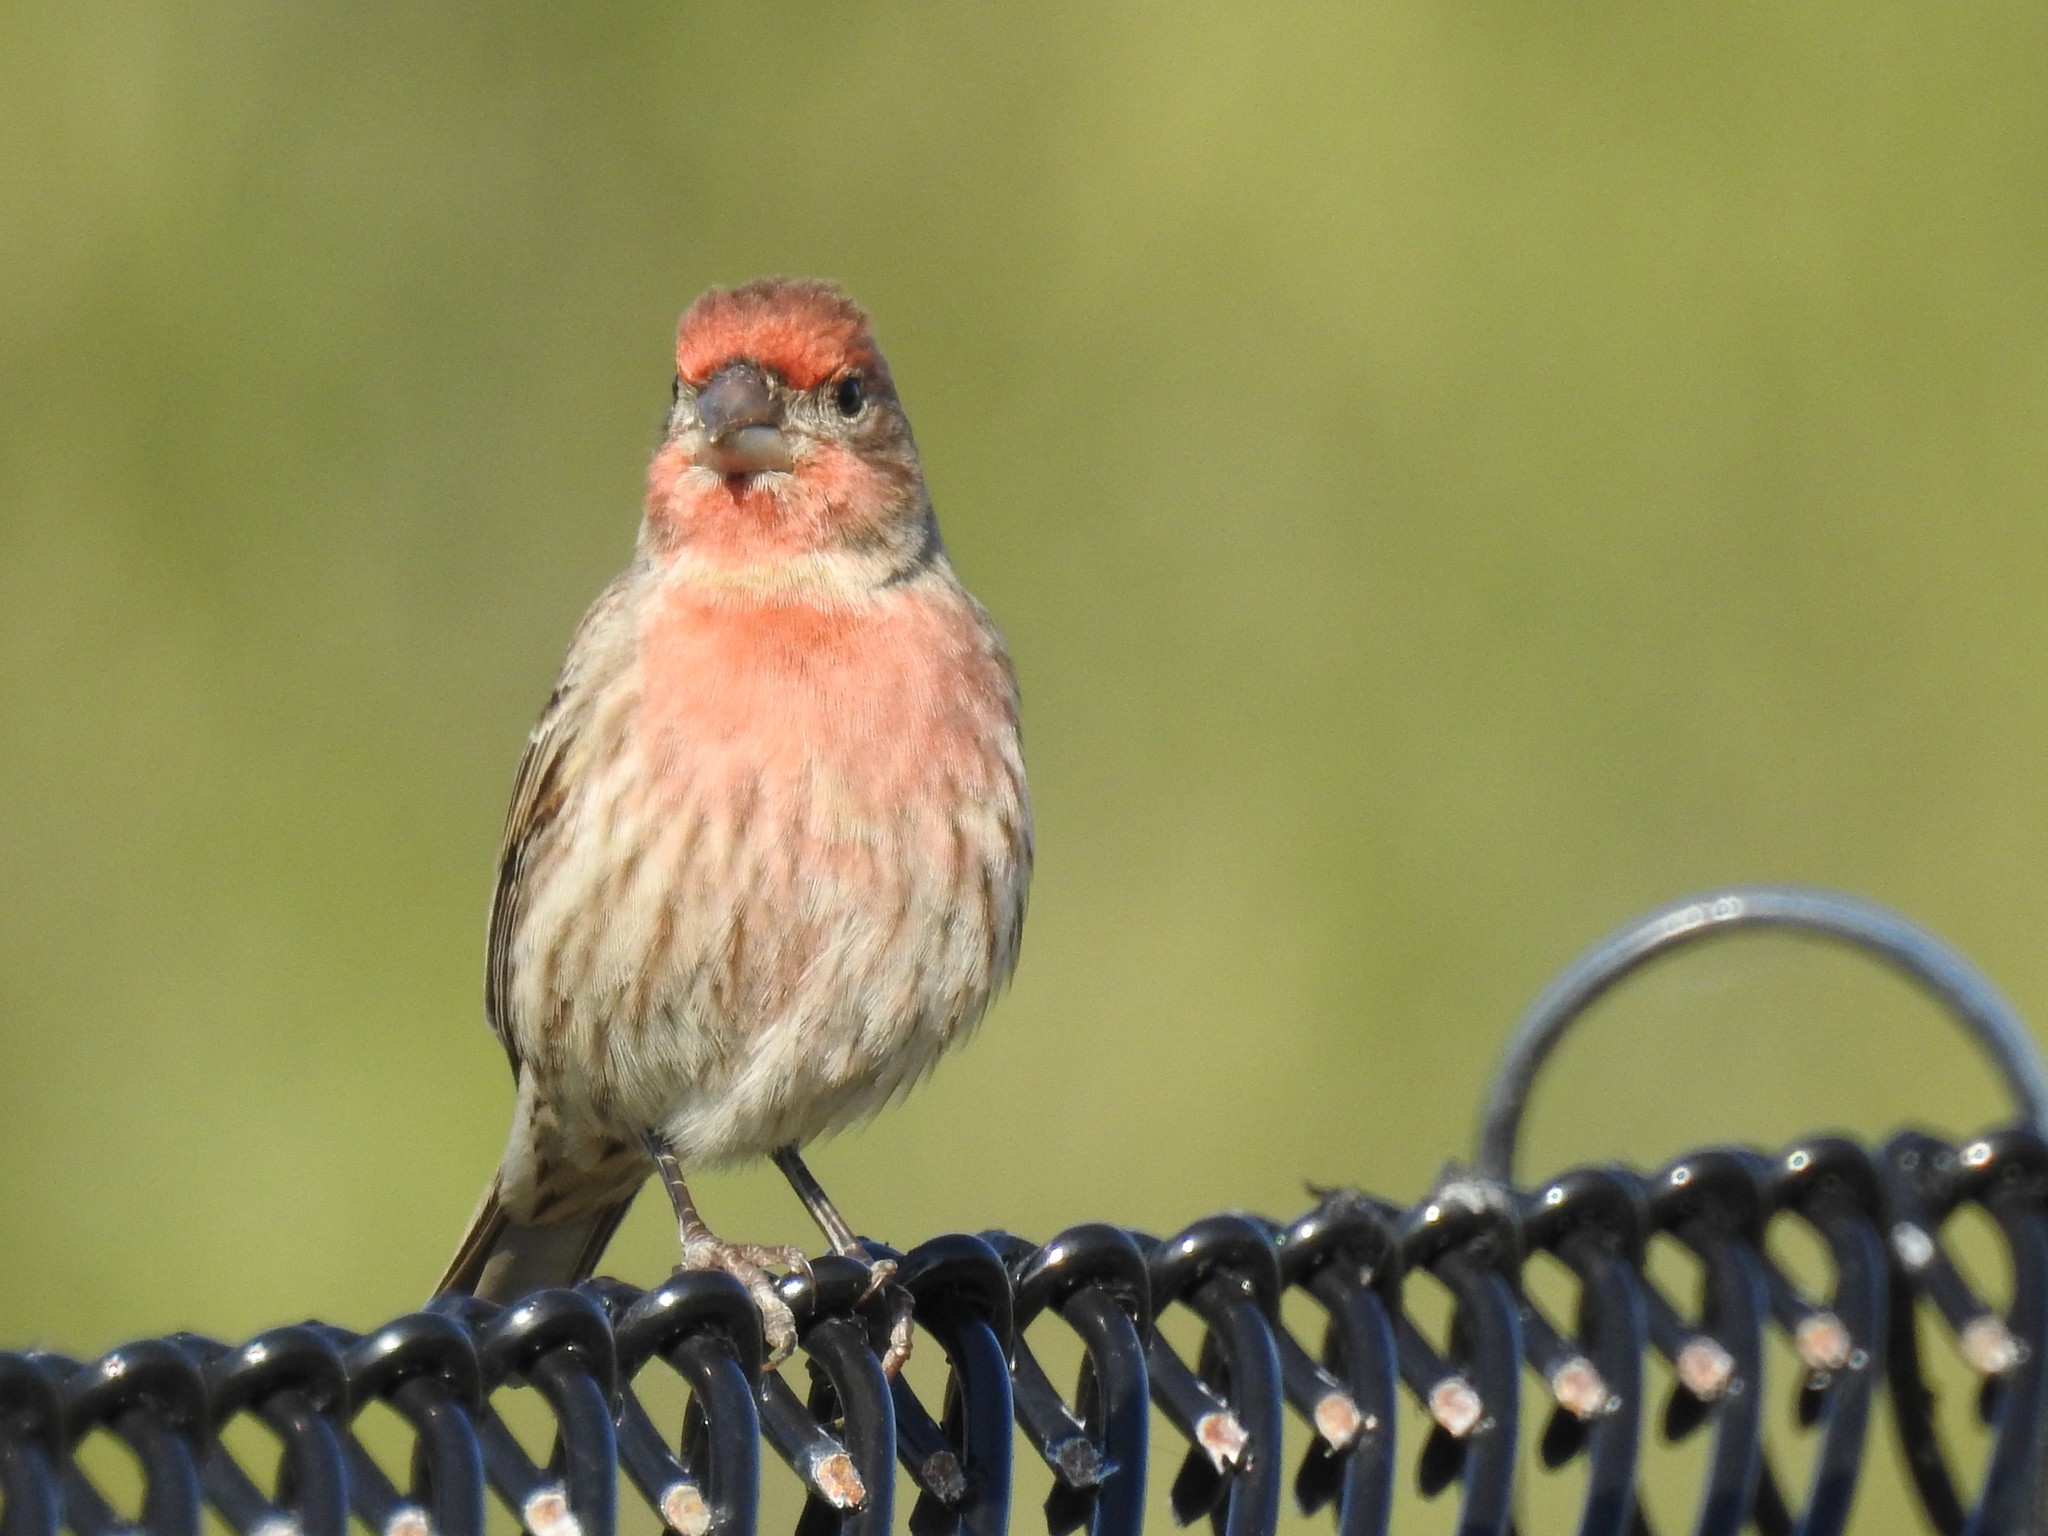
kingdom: Animalia
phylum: Chordata
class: Aves
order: Passeriformes
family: Fringillidae
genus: Haemorhous
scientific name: Haemorhous mexicanus
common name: House finch
